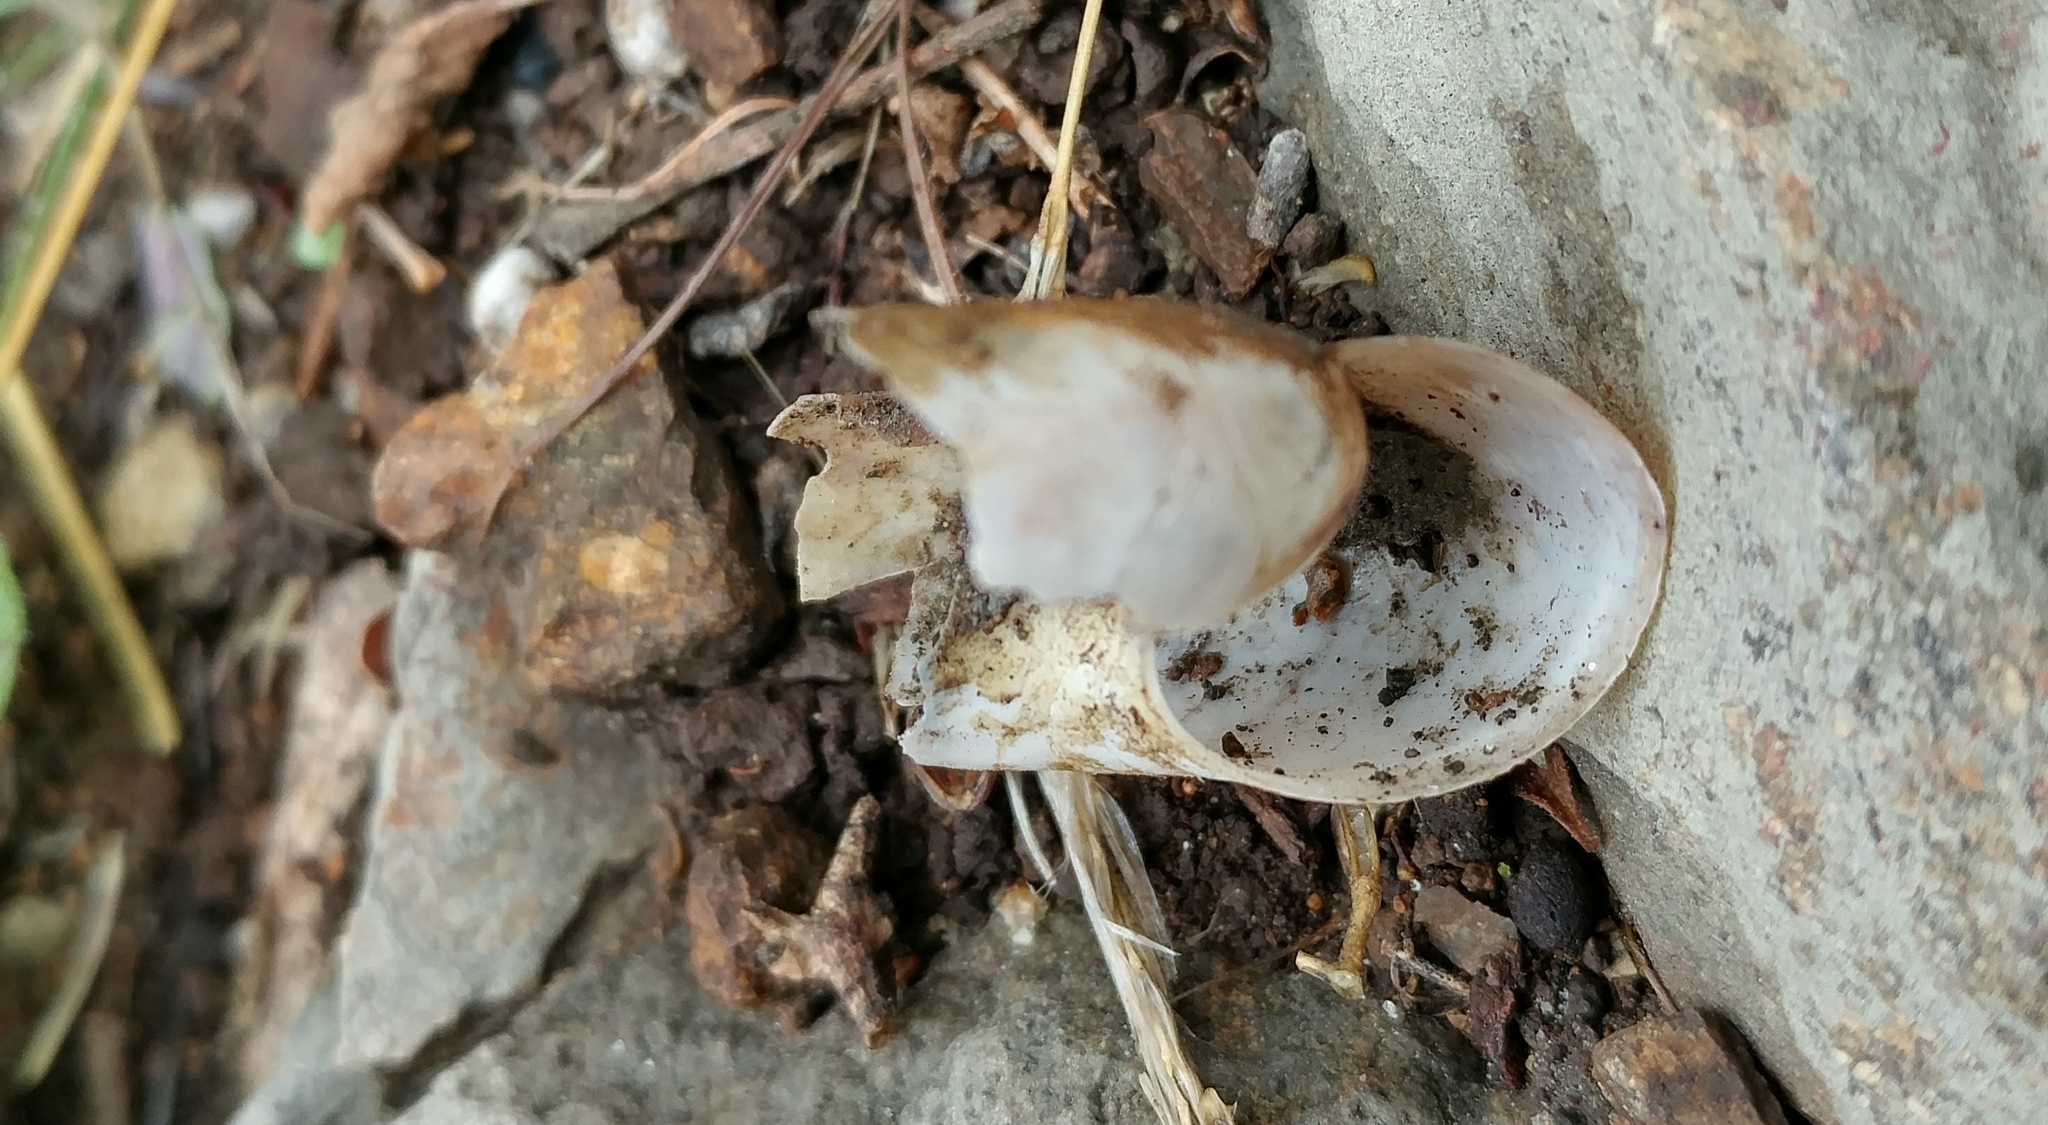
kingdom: Animalia
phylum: Mollusca
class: Gastropoda
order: Stylommatophora
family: Megomphicidae
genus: Glyptostoma
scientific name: Glyptostoma newberryanum
